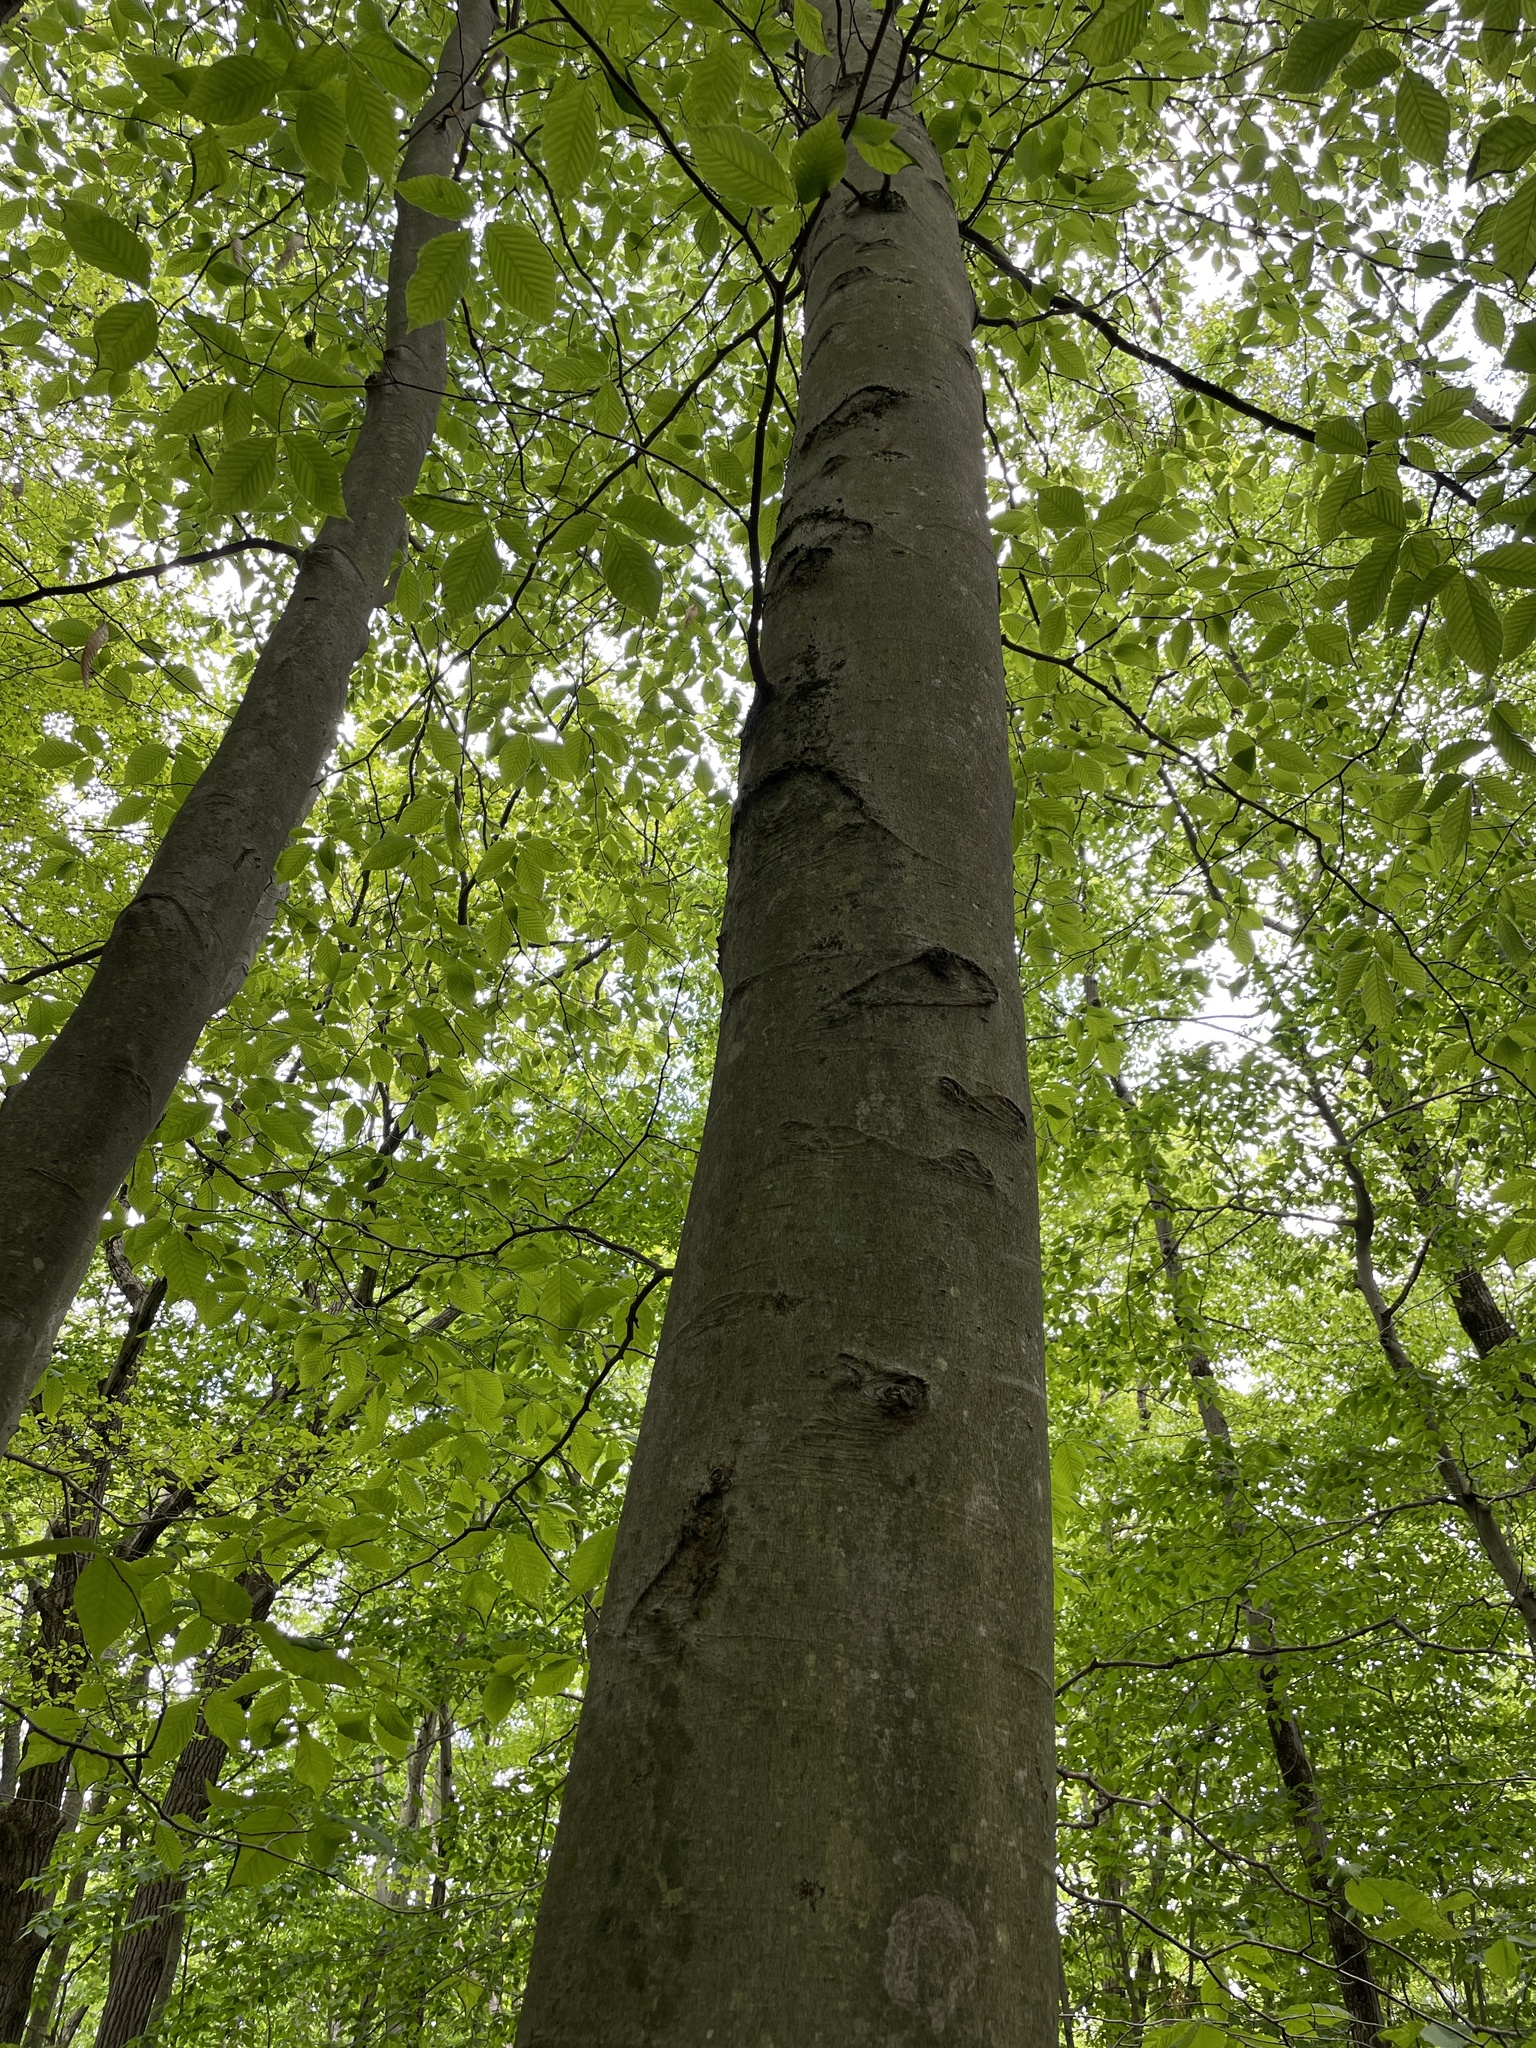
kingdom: Plantae
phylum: Tracheophyta
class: Magnoliopsida
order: Fagales
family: Fagaceae
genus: Fagus
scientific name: Fagus grandifolia
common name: American beech
